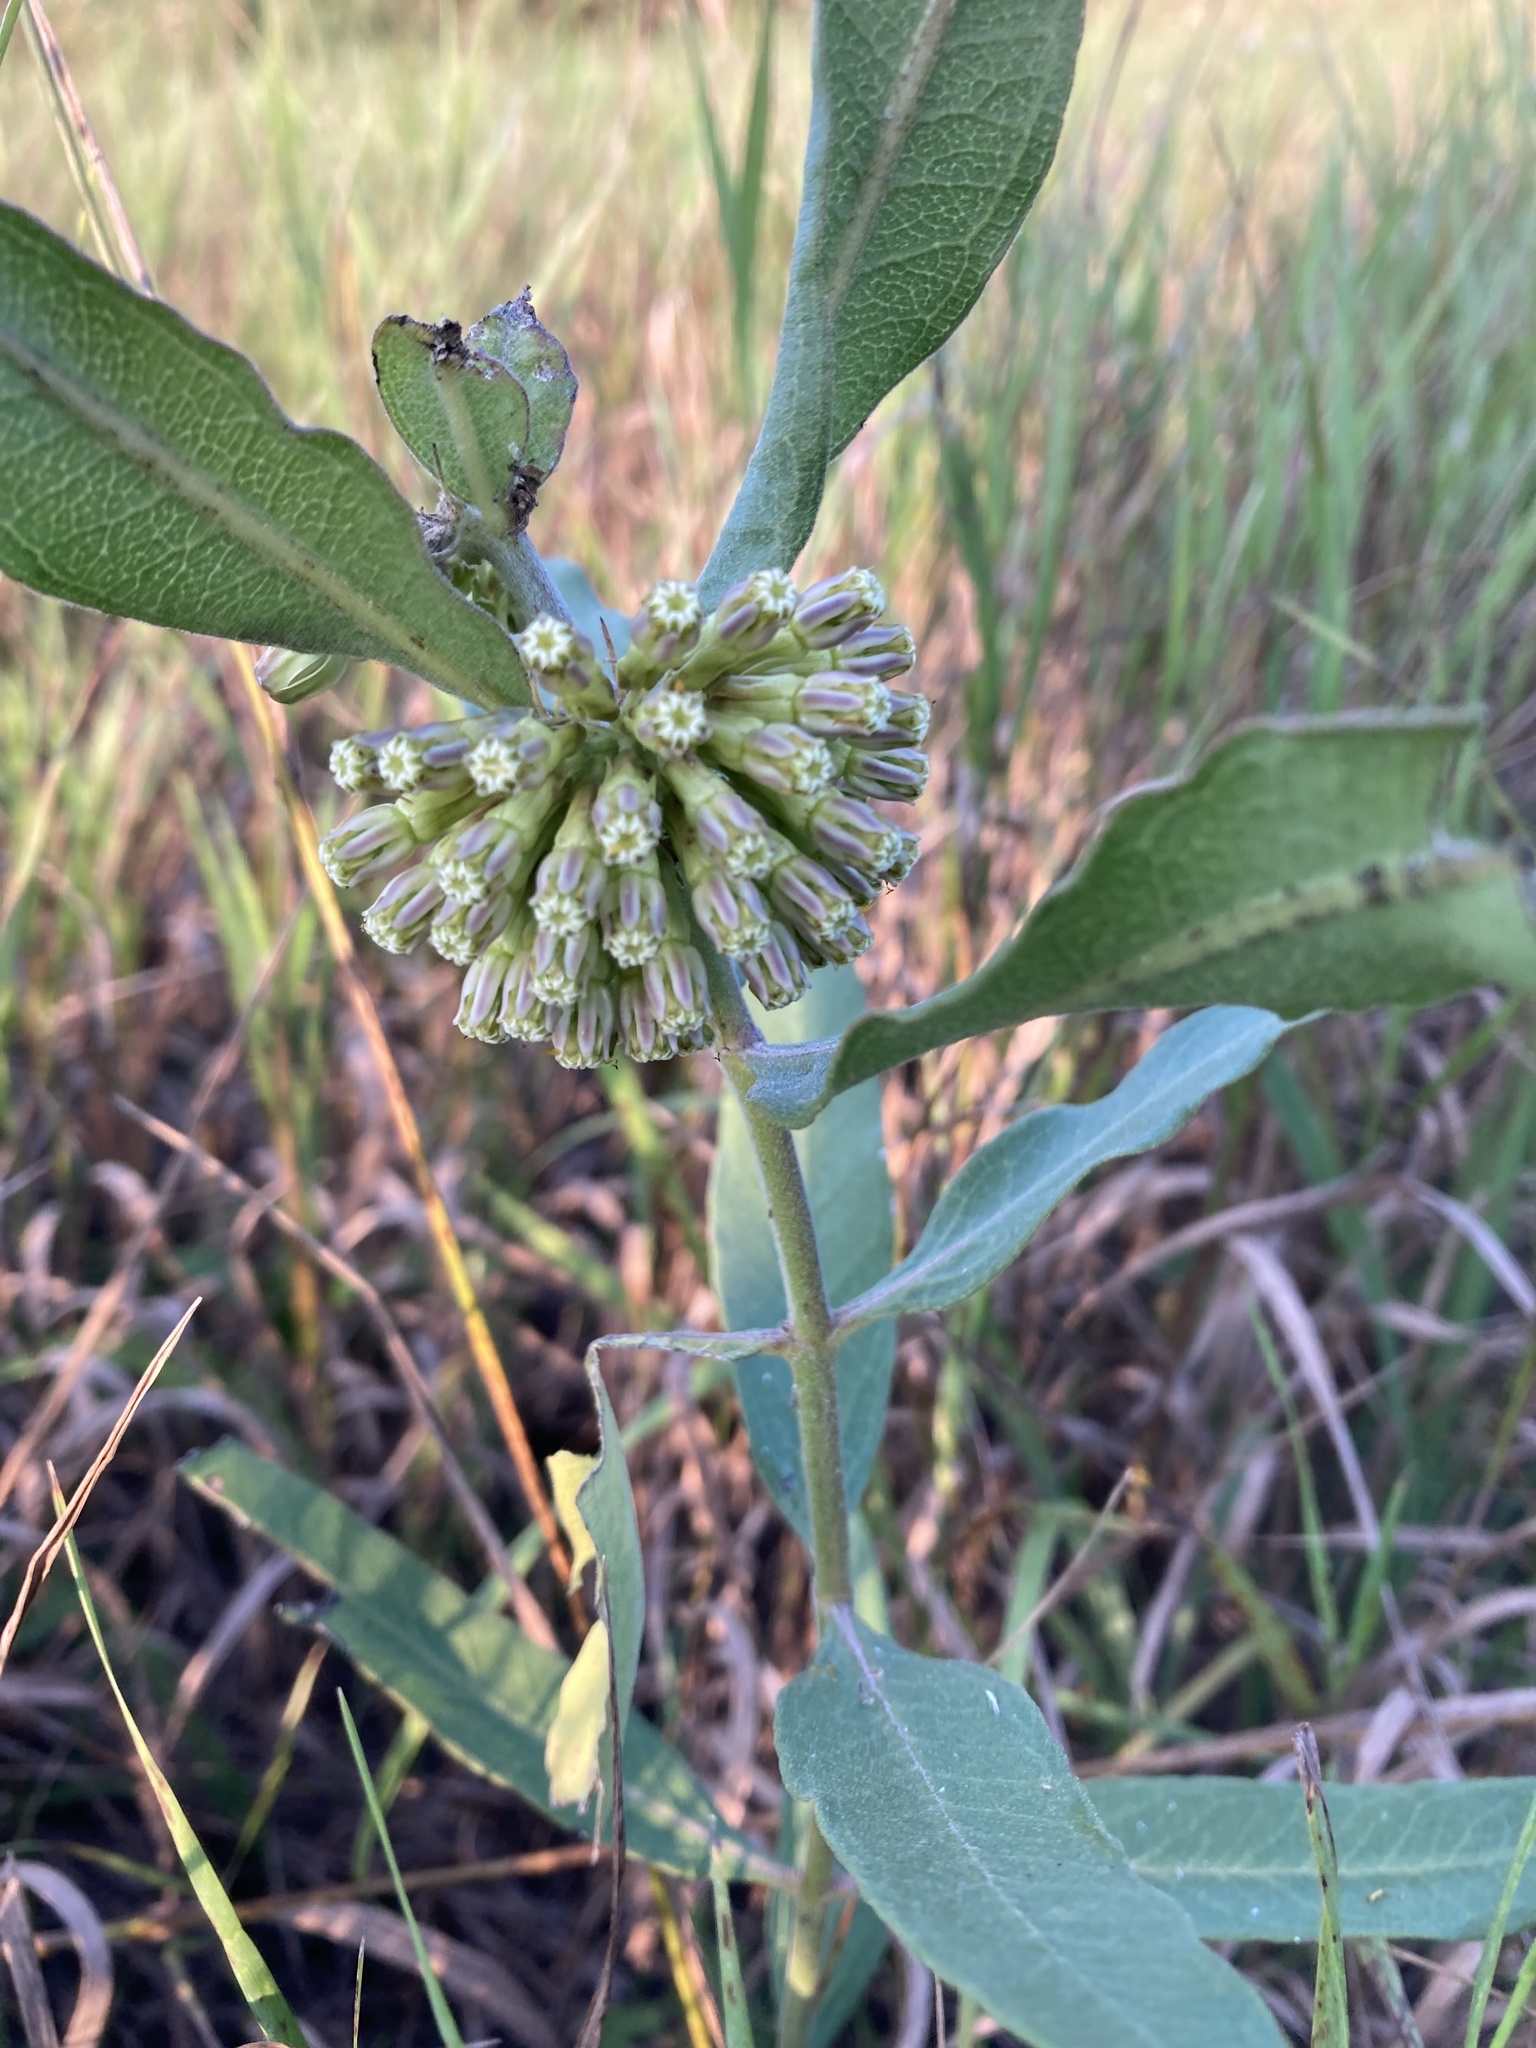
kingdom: Plantae
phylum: Tracheophyta
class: Magnoliopsida
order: Gentianales
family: Apocynaceae
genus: Asclepias
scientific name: Asclepias viridiflora
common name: Green comet milkweed
